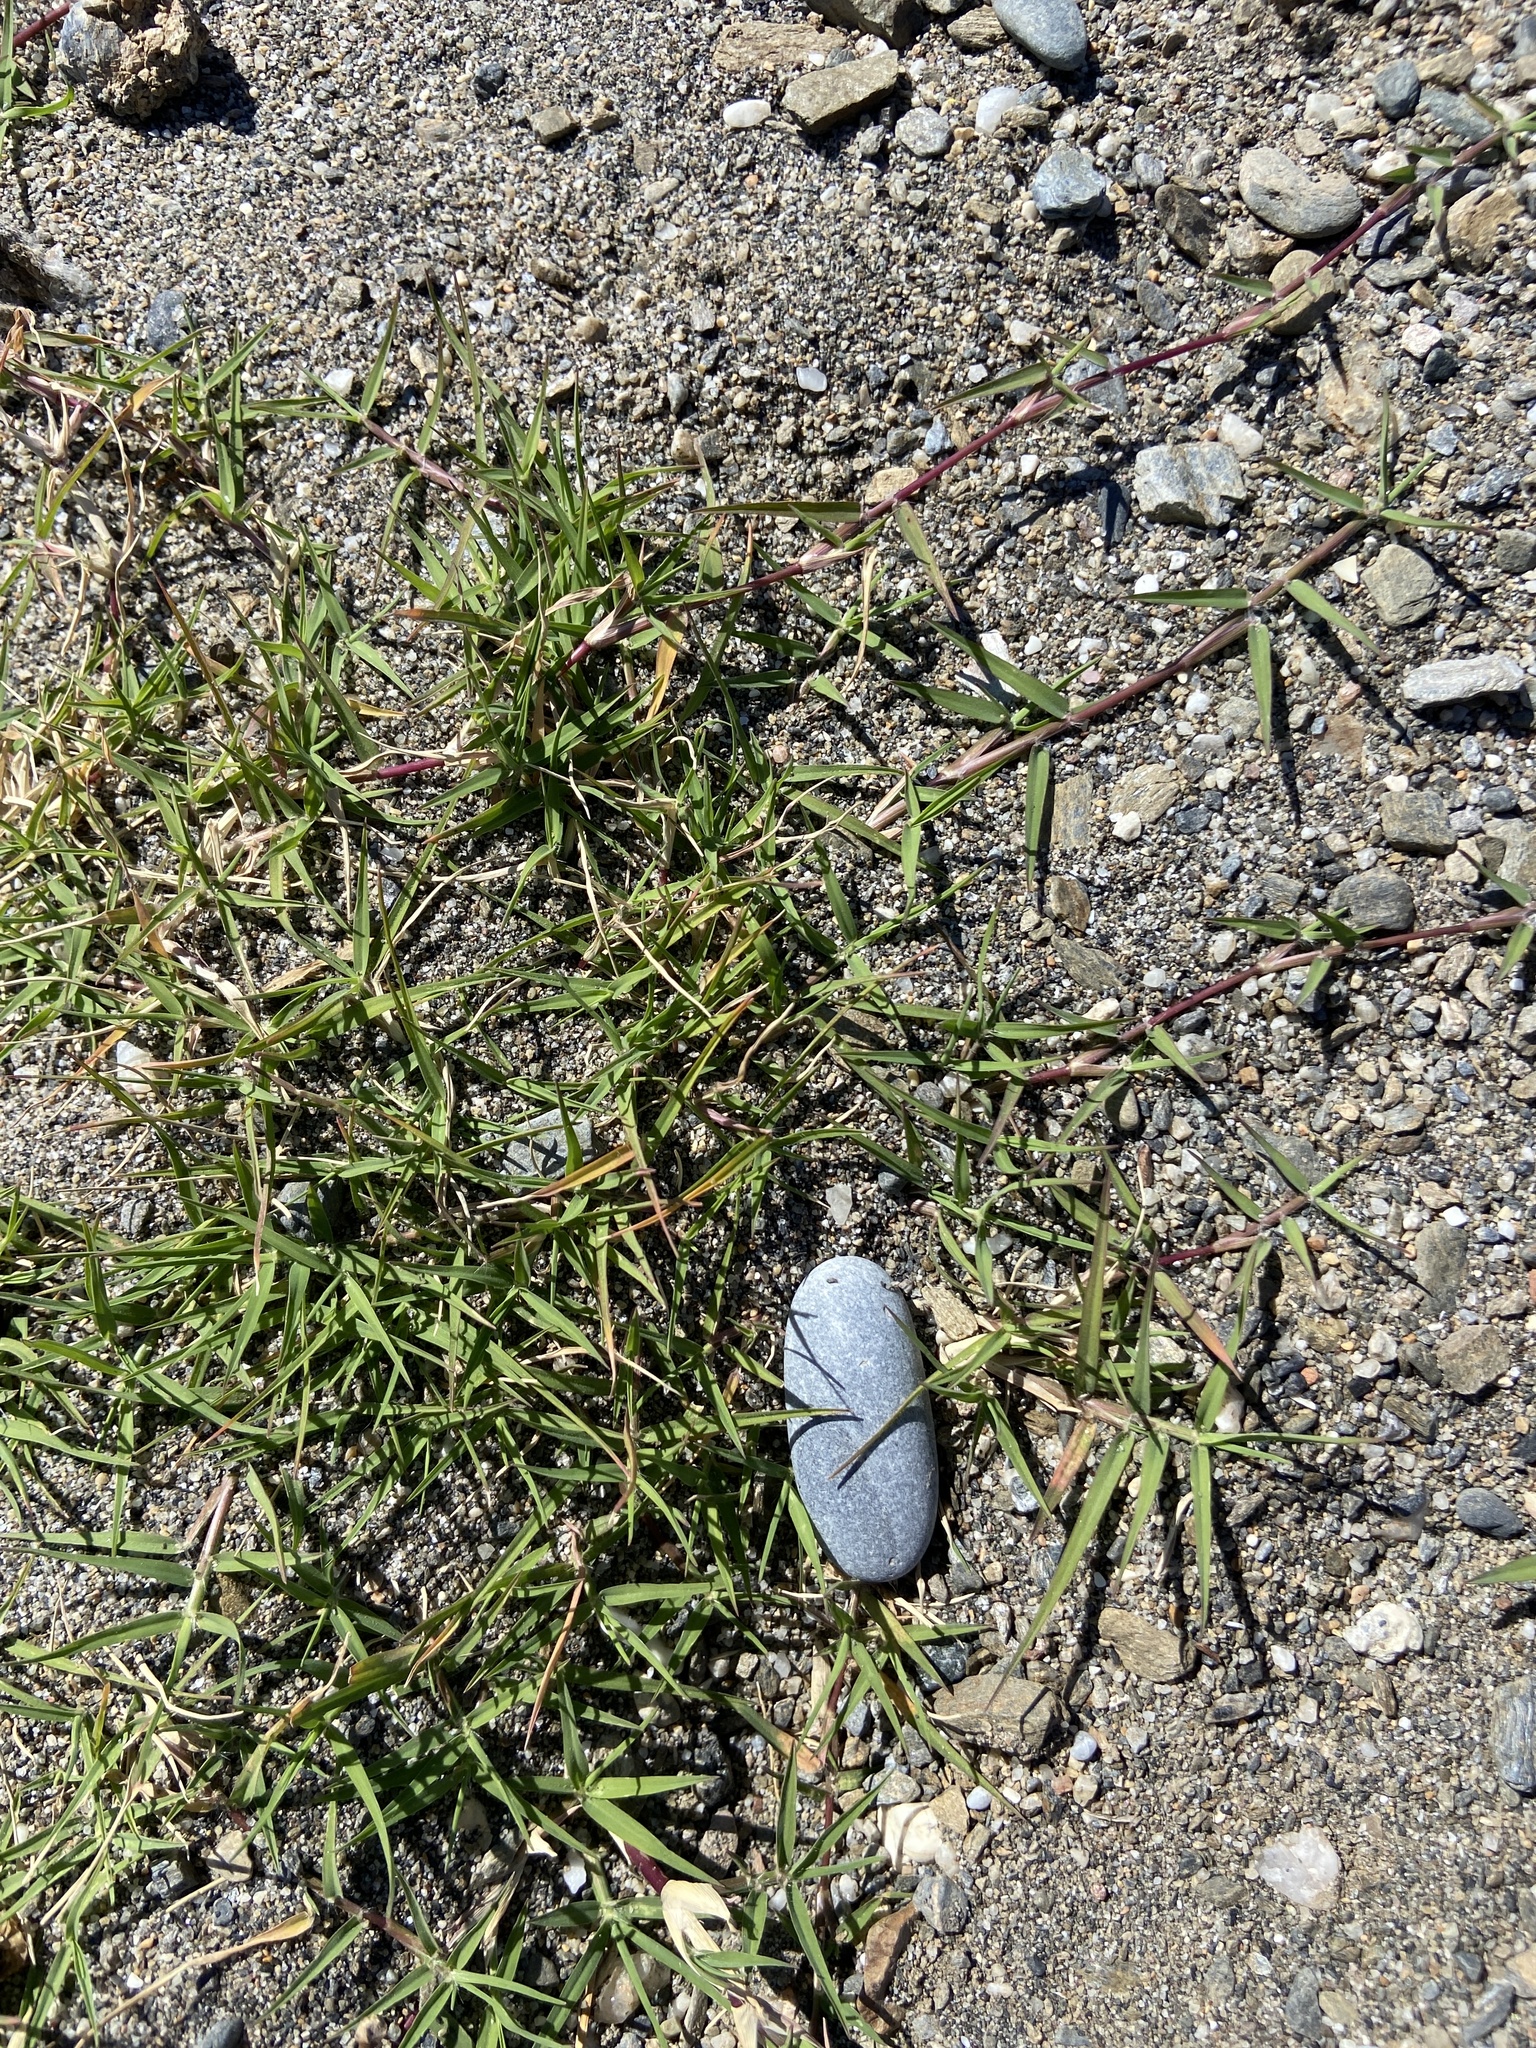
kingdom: Plantae
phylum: Tracheophyta
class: Liliopsida
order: Poales
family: Poaceae
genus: Cynodon
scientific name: Cynodon dactylon
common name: Bermuda grass
